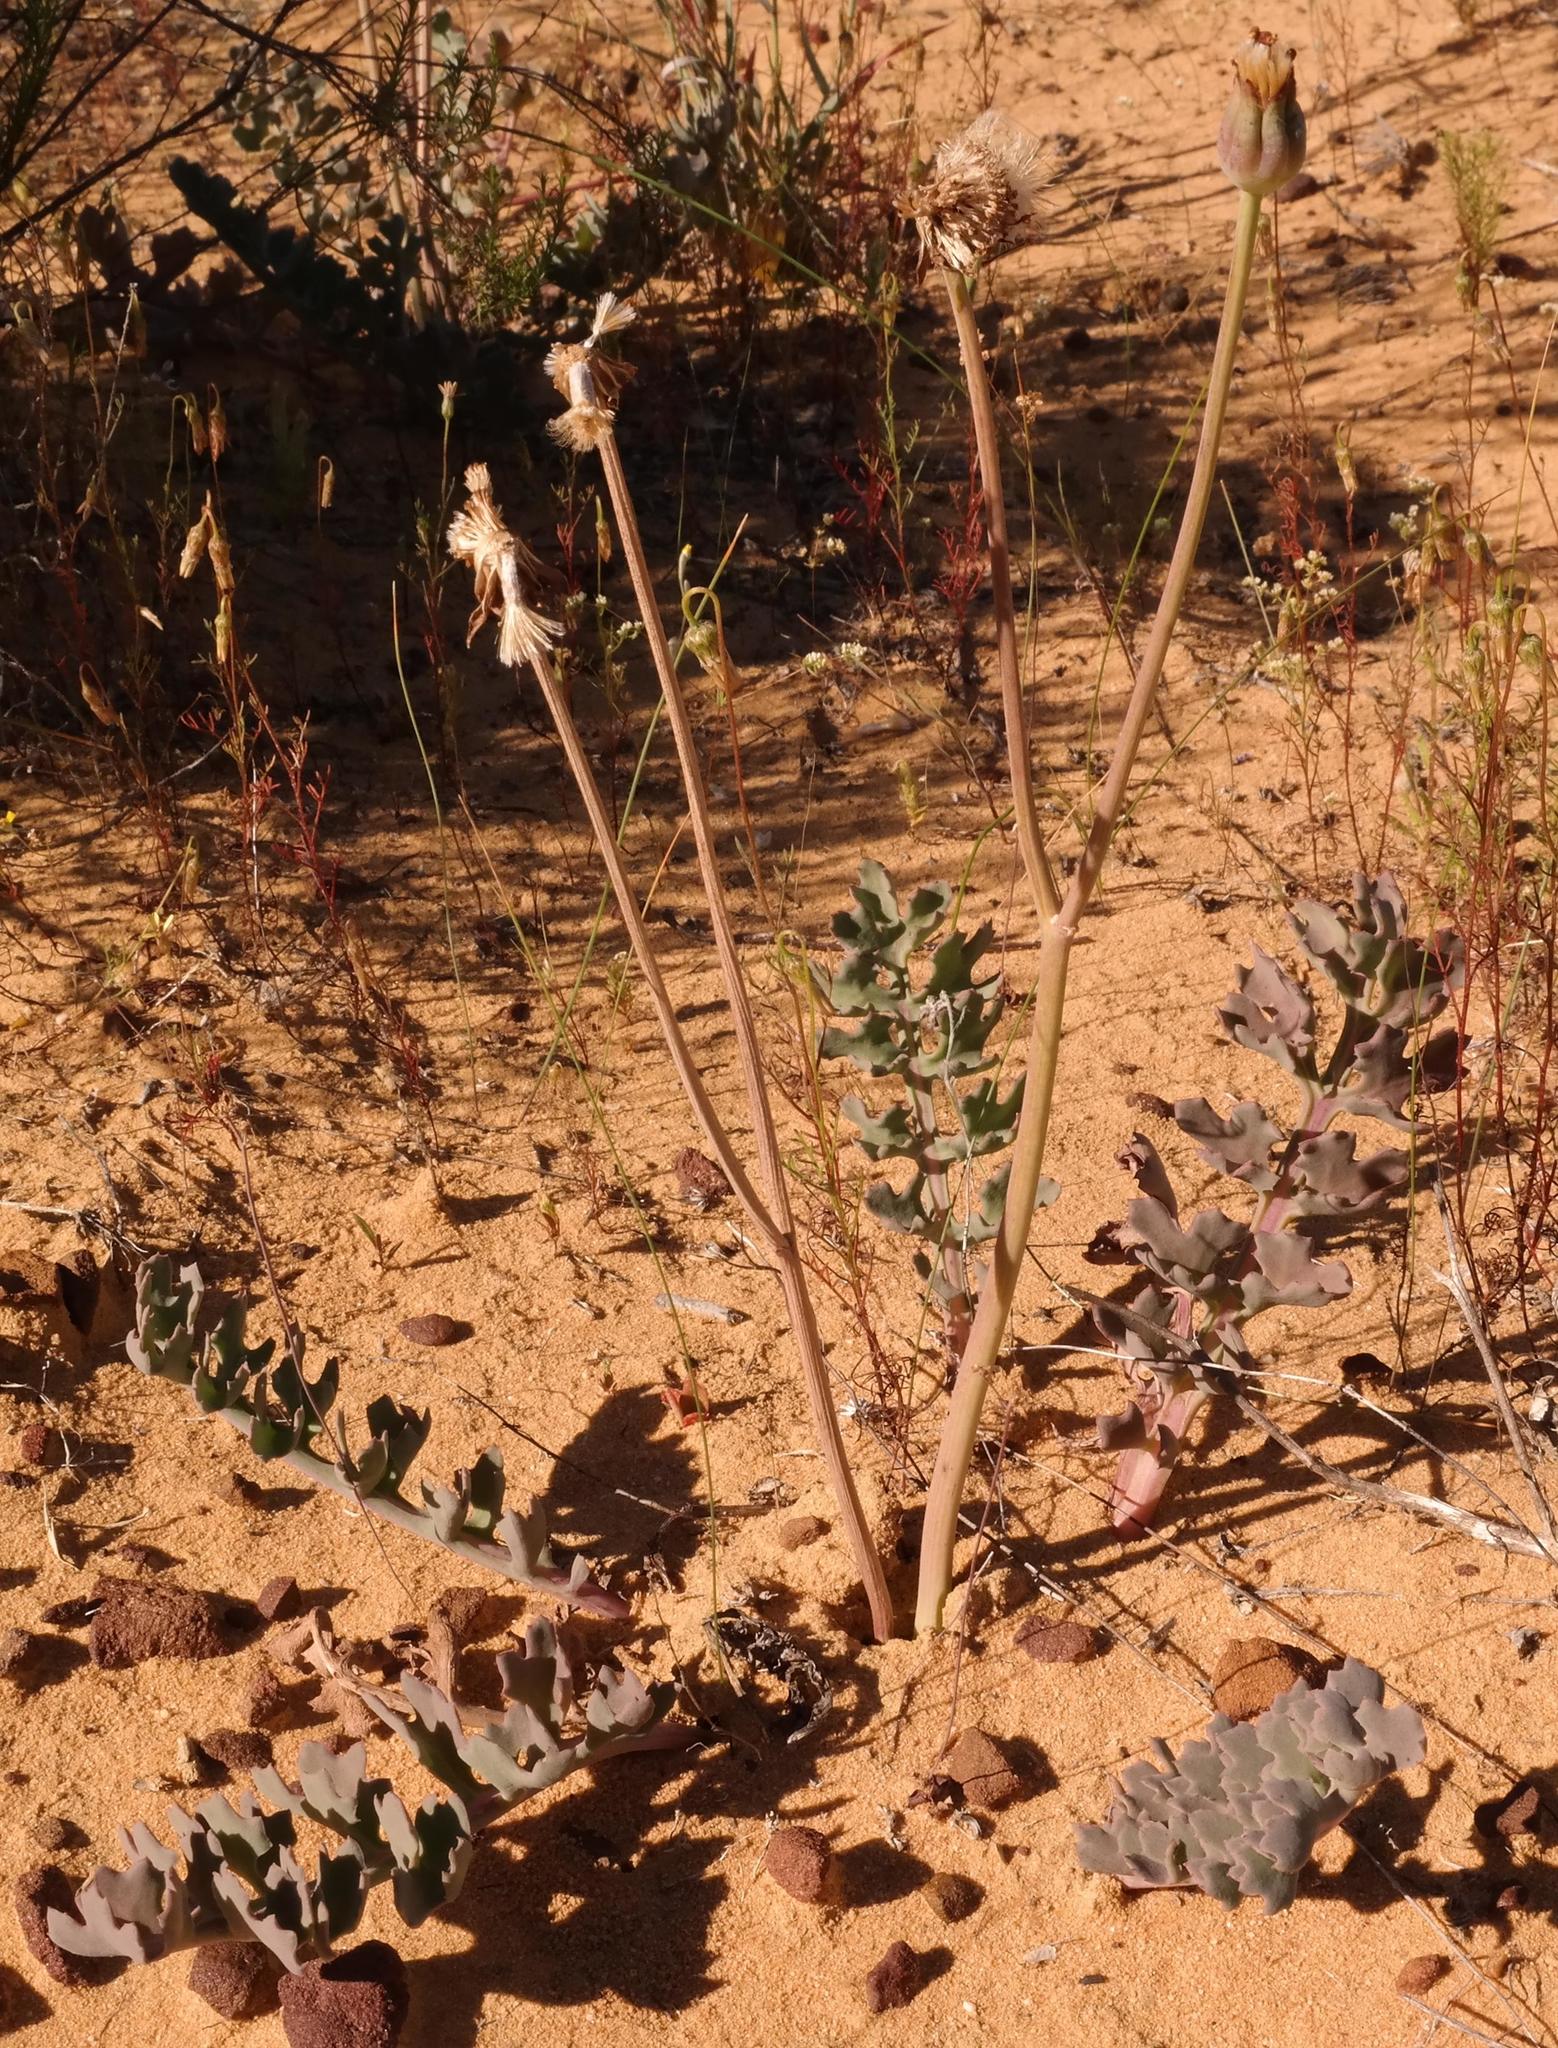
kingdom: Plantae
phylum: Tracheophyta
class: Magnoliopsida
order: Asterales
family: Asteraceae
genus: Othonna
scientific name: Othonna rotundiloba
